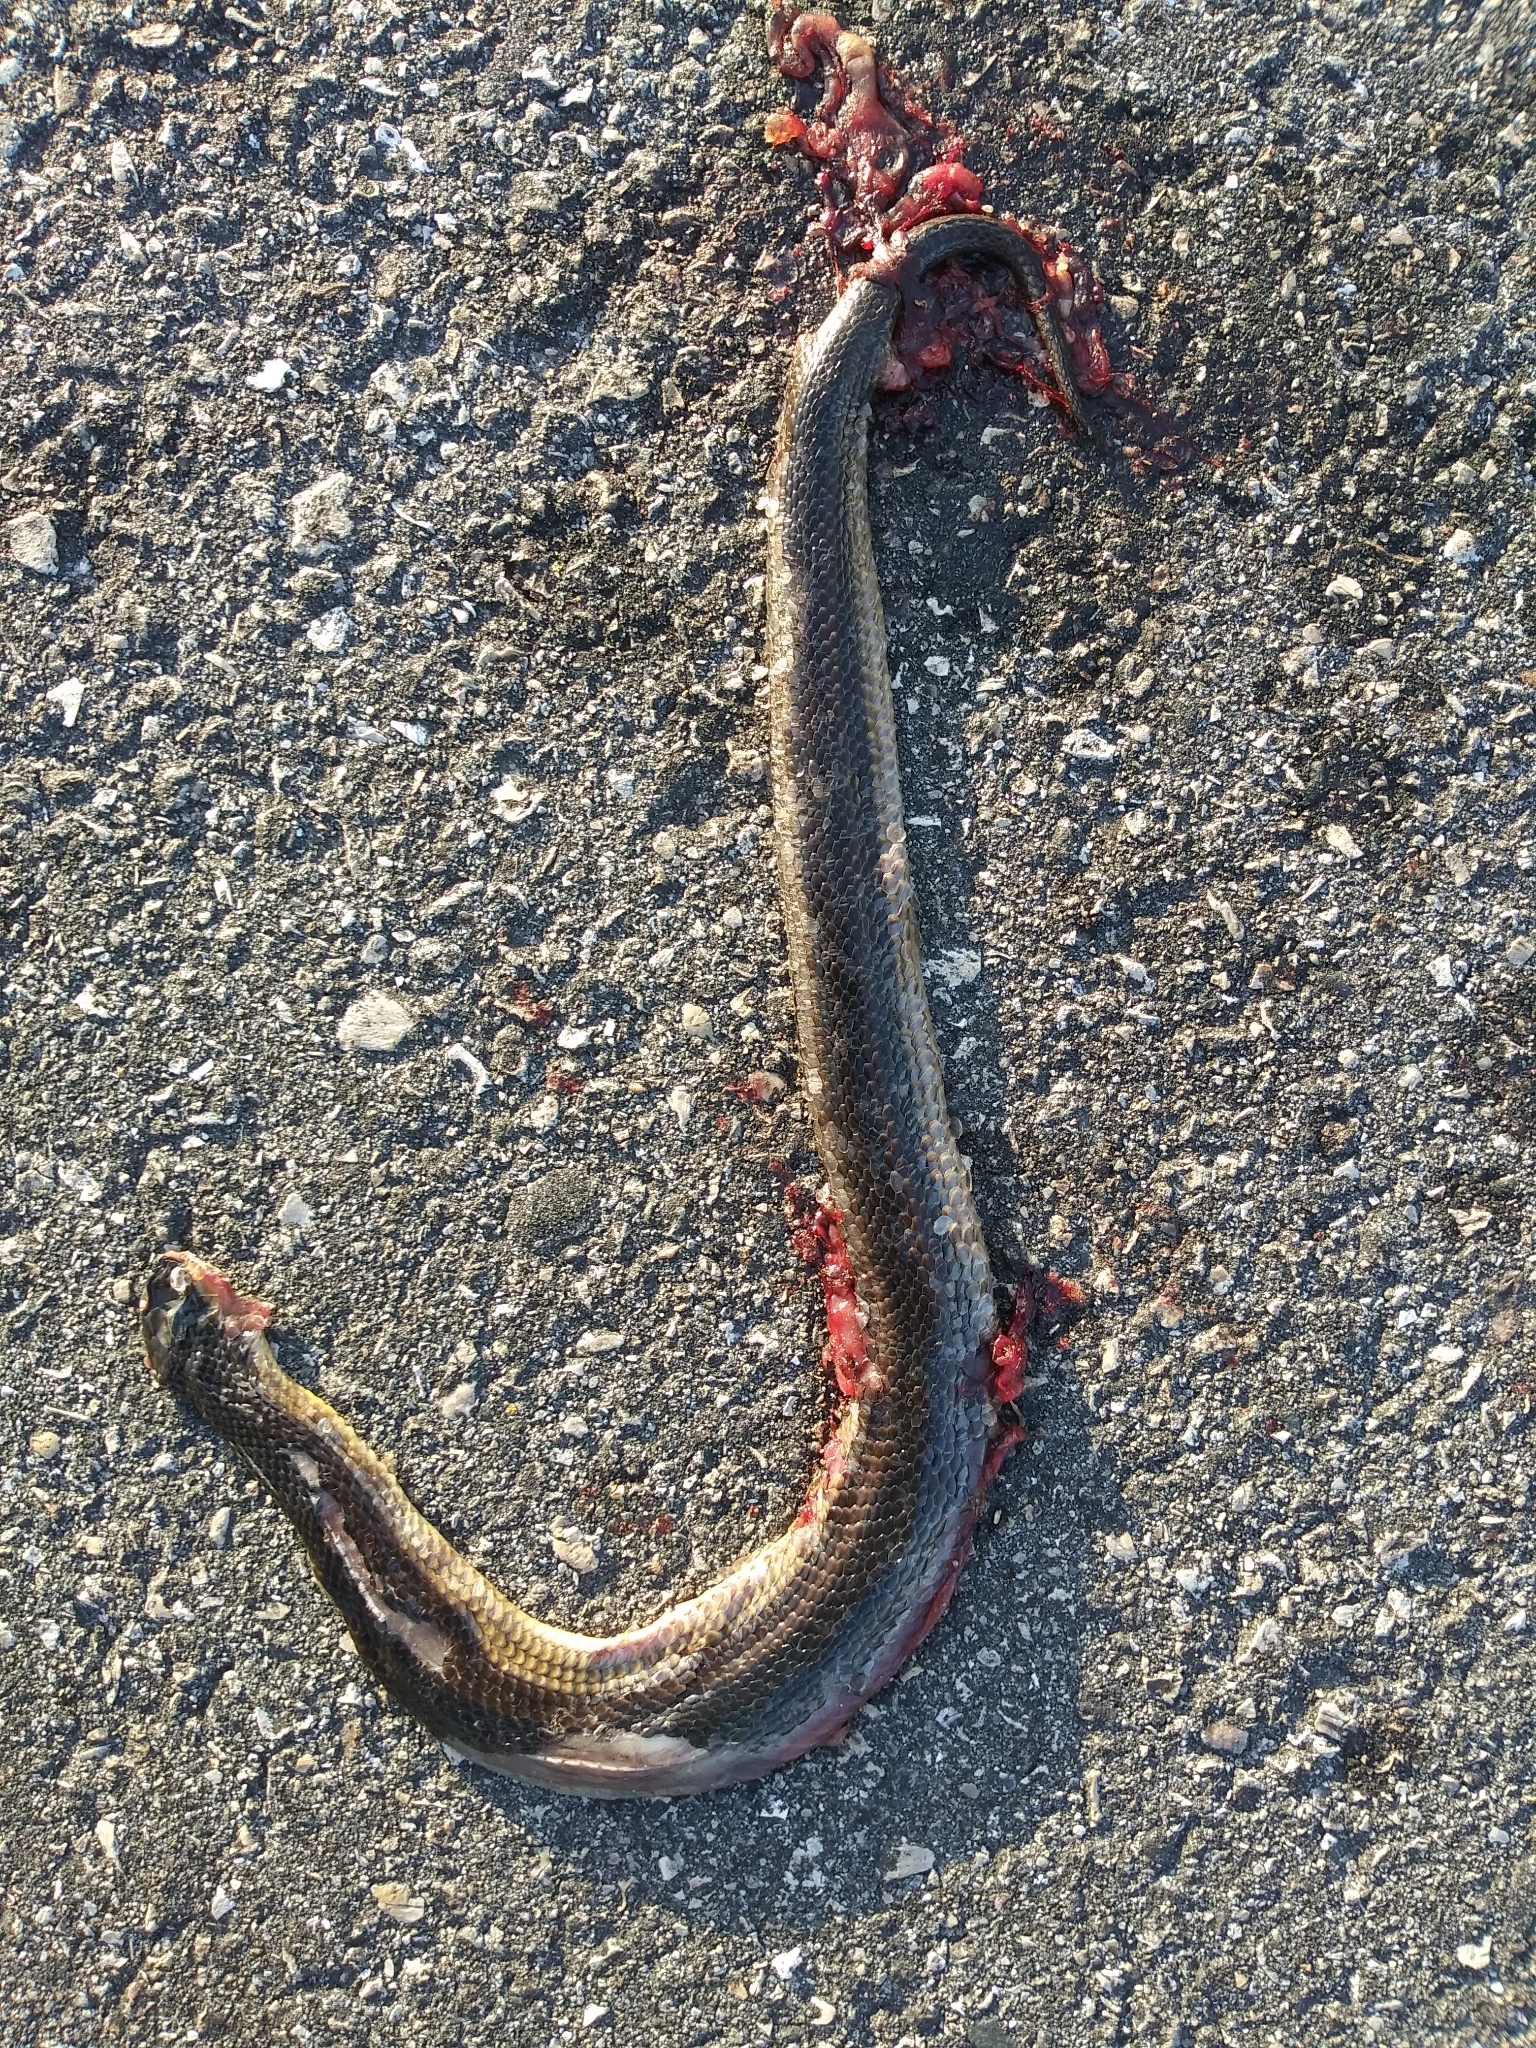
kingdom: Animalia
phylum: Chordata
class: Squamata
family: Colubridae
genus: Liodytes
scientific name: Liodytes alleni
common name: Striped crayfish snake
